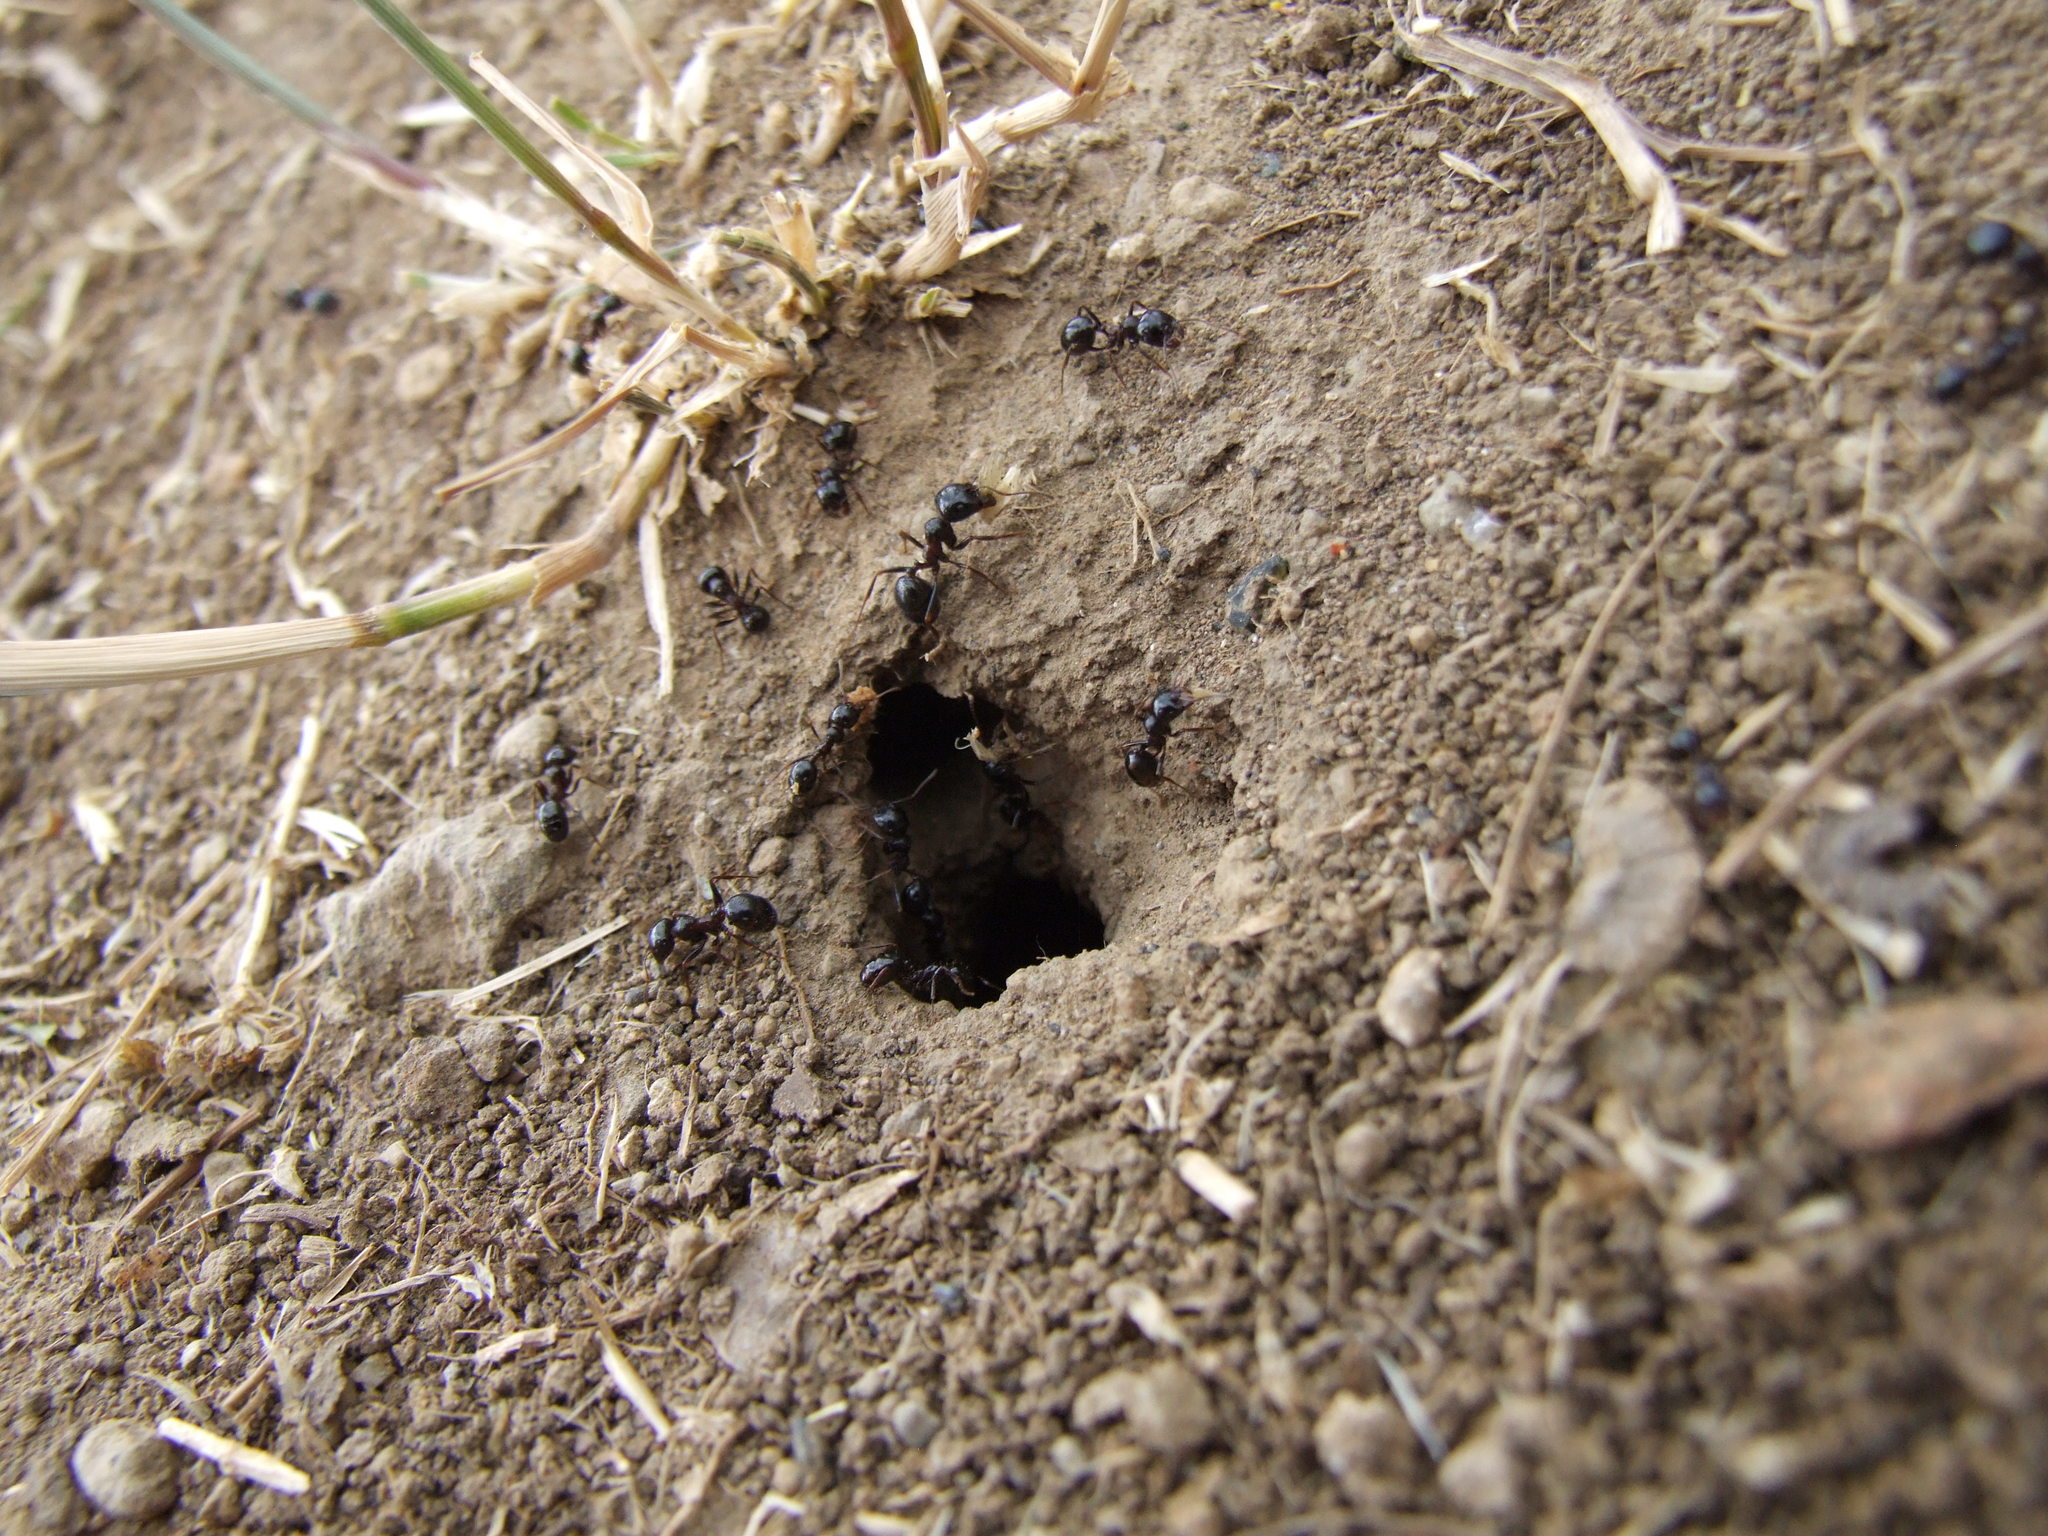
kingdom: Animalia
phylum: Arthropoda
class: Insecta
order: Hymenoptera
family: Formicidae
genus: Messor
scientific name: Messor wasmanni
